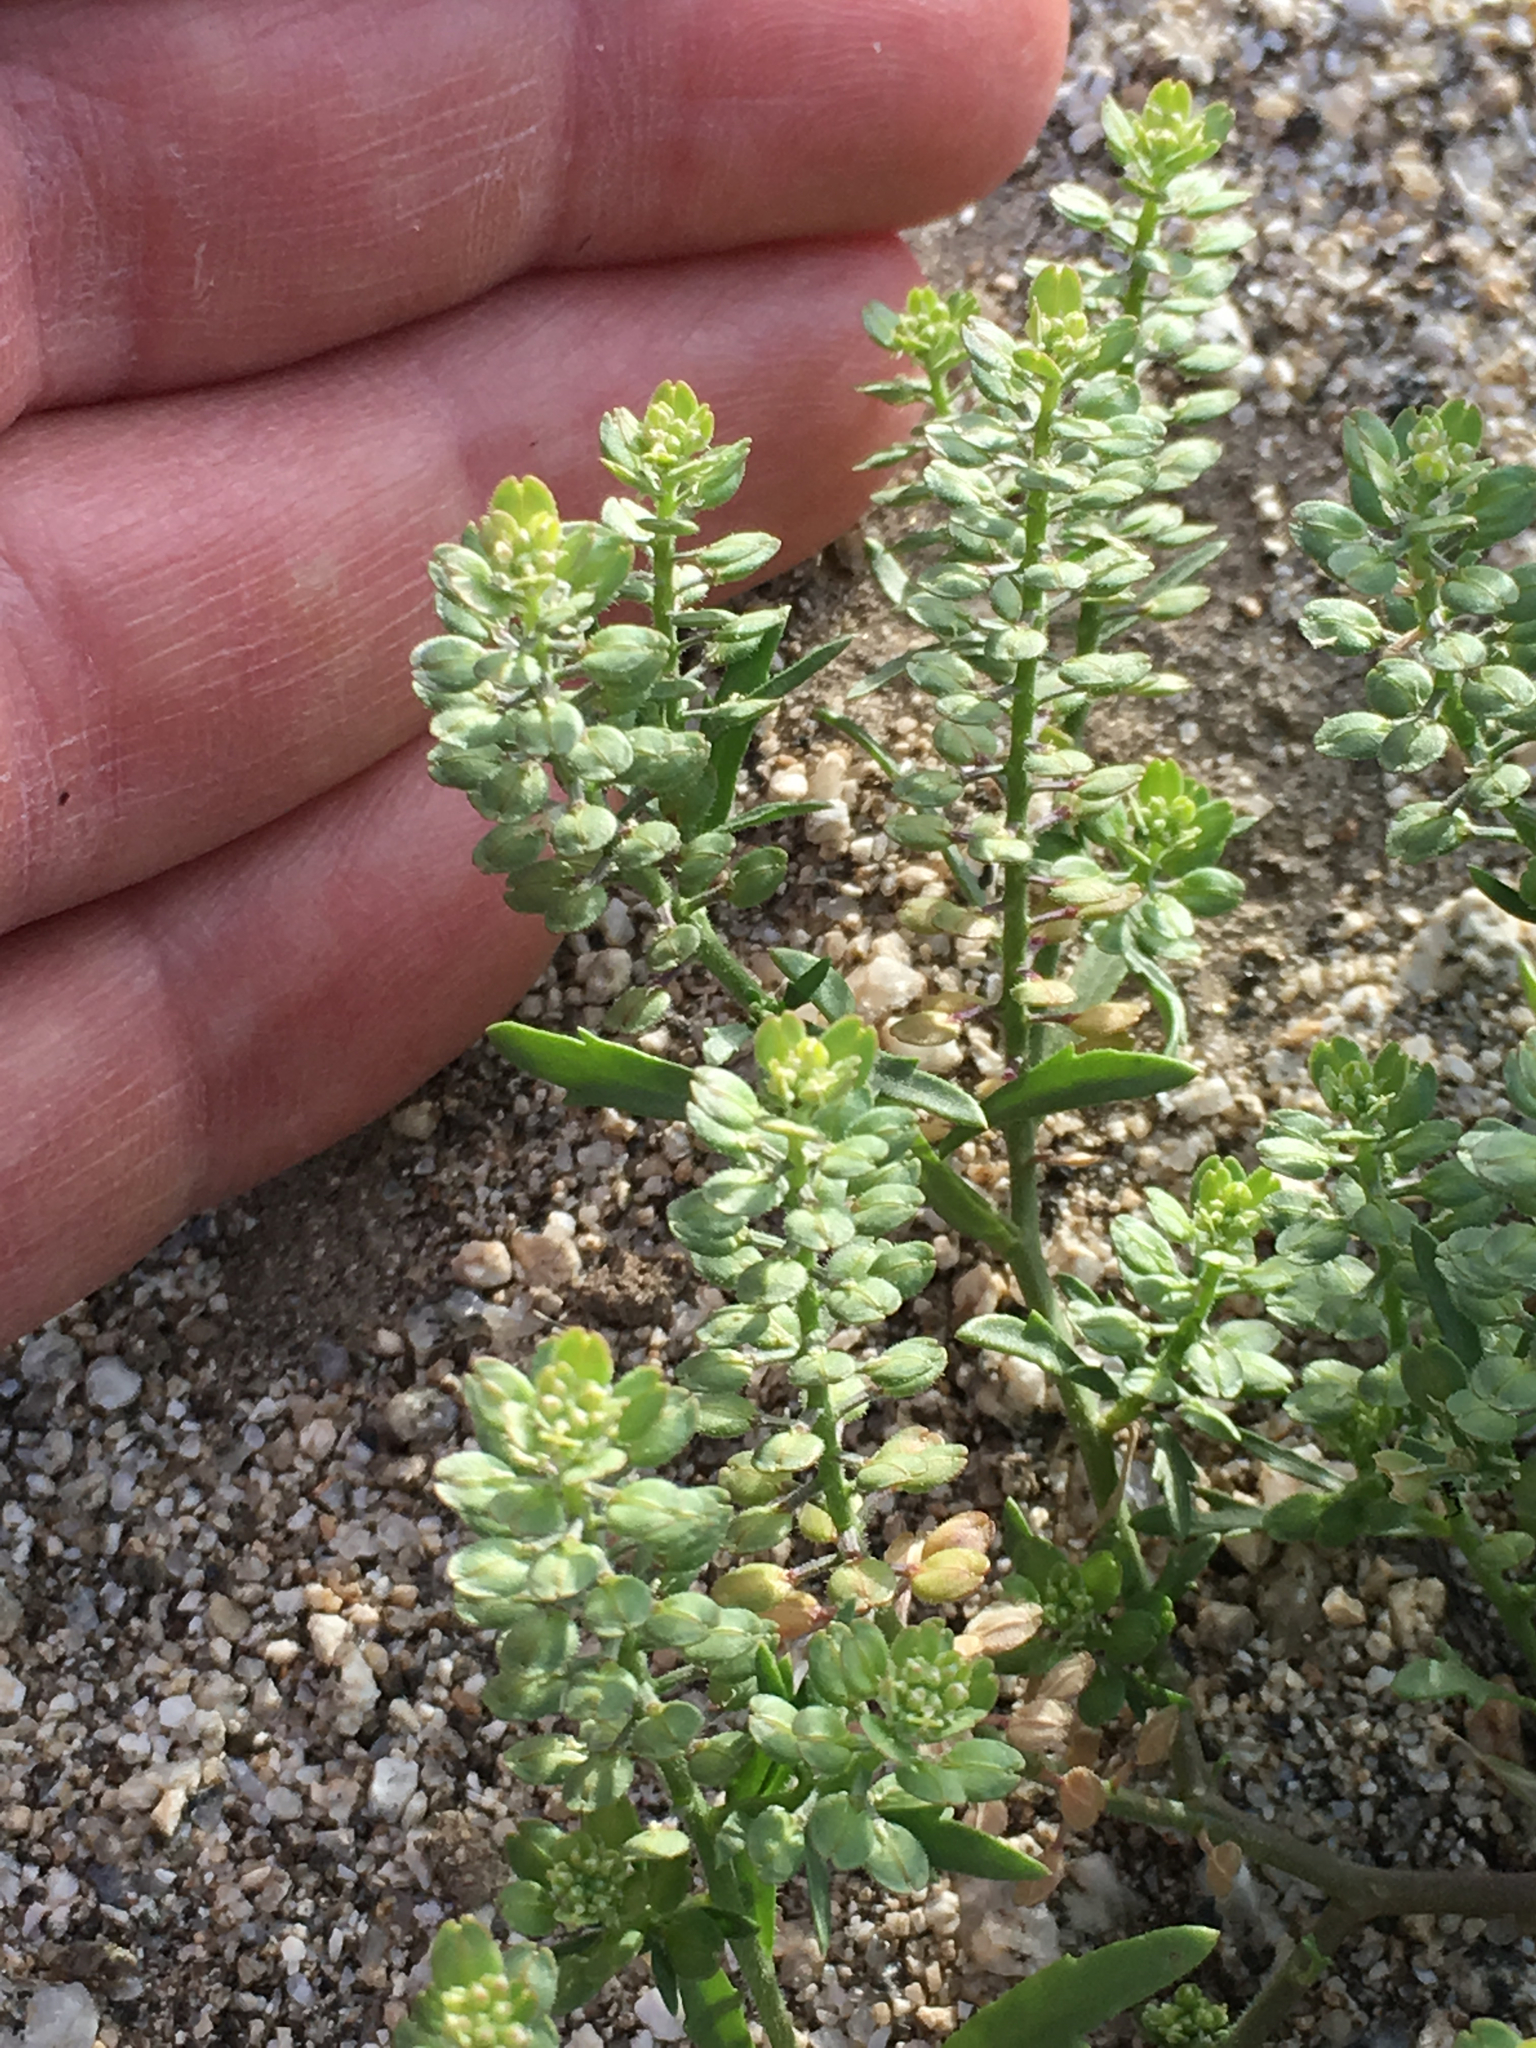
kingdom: Plantae
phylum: Tracheophyta
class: Magnoliopsida
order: Brassicales
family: Brassicaceae
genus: Lepidium
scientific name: Lepidium lasiocarpum
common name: Hairy-pod pepperwort
